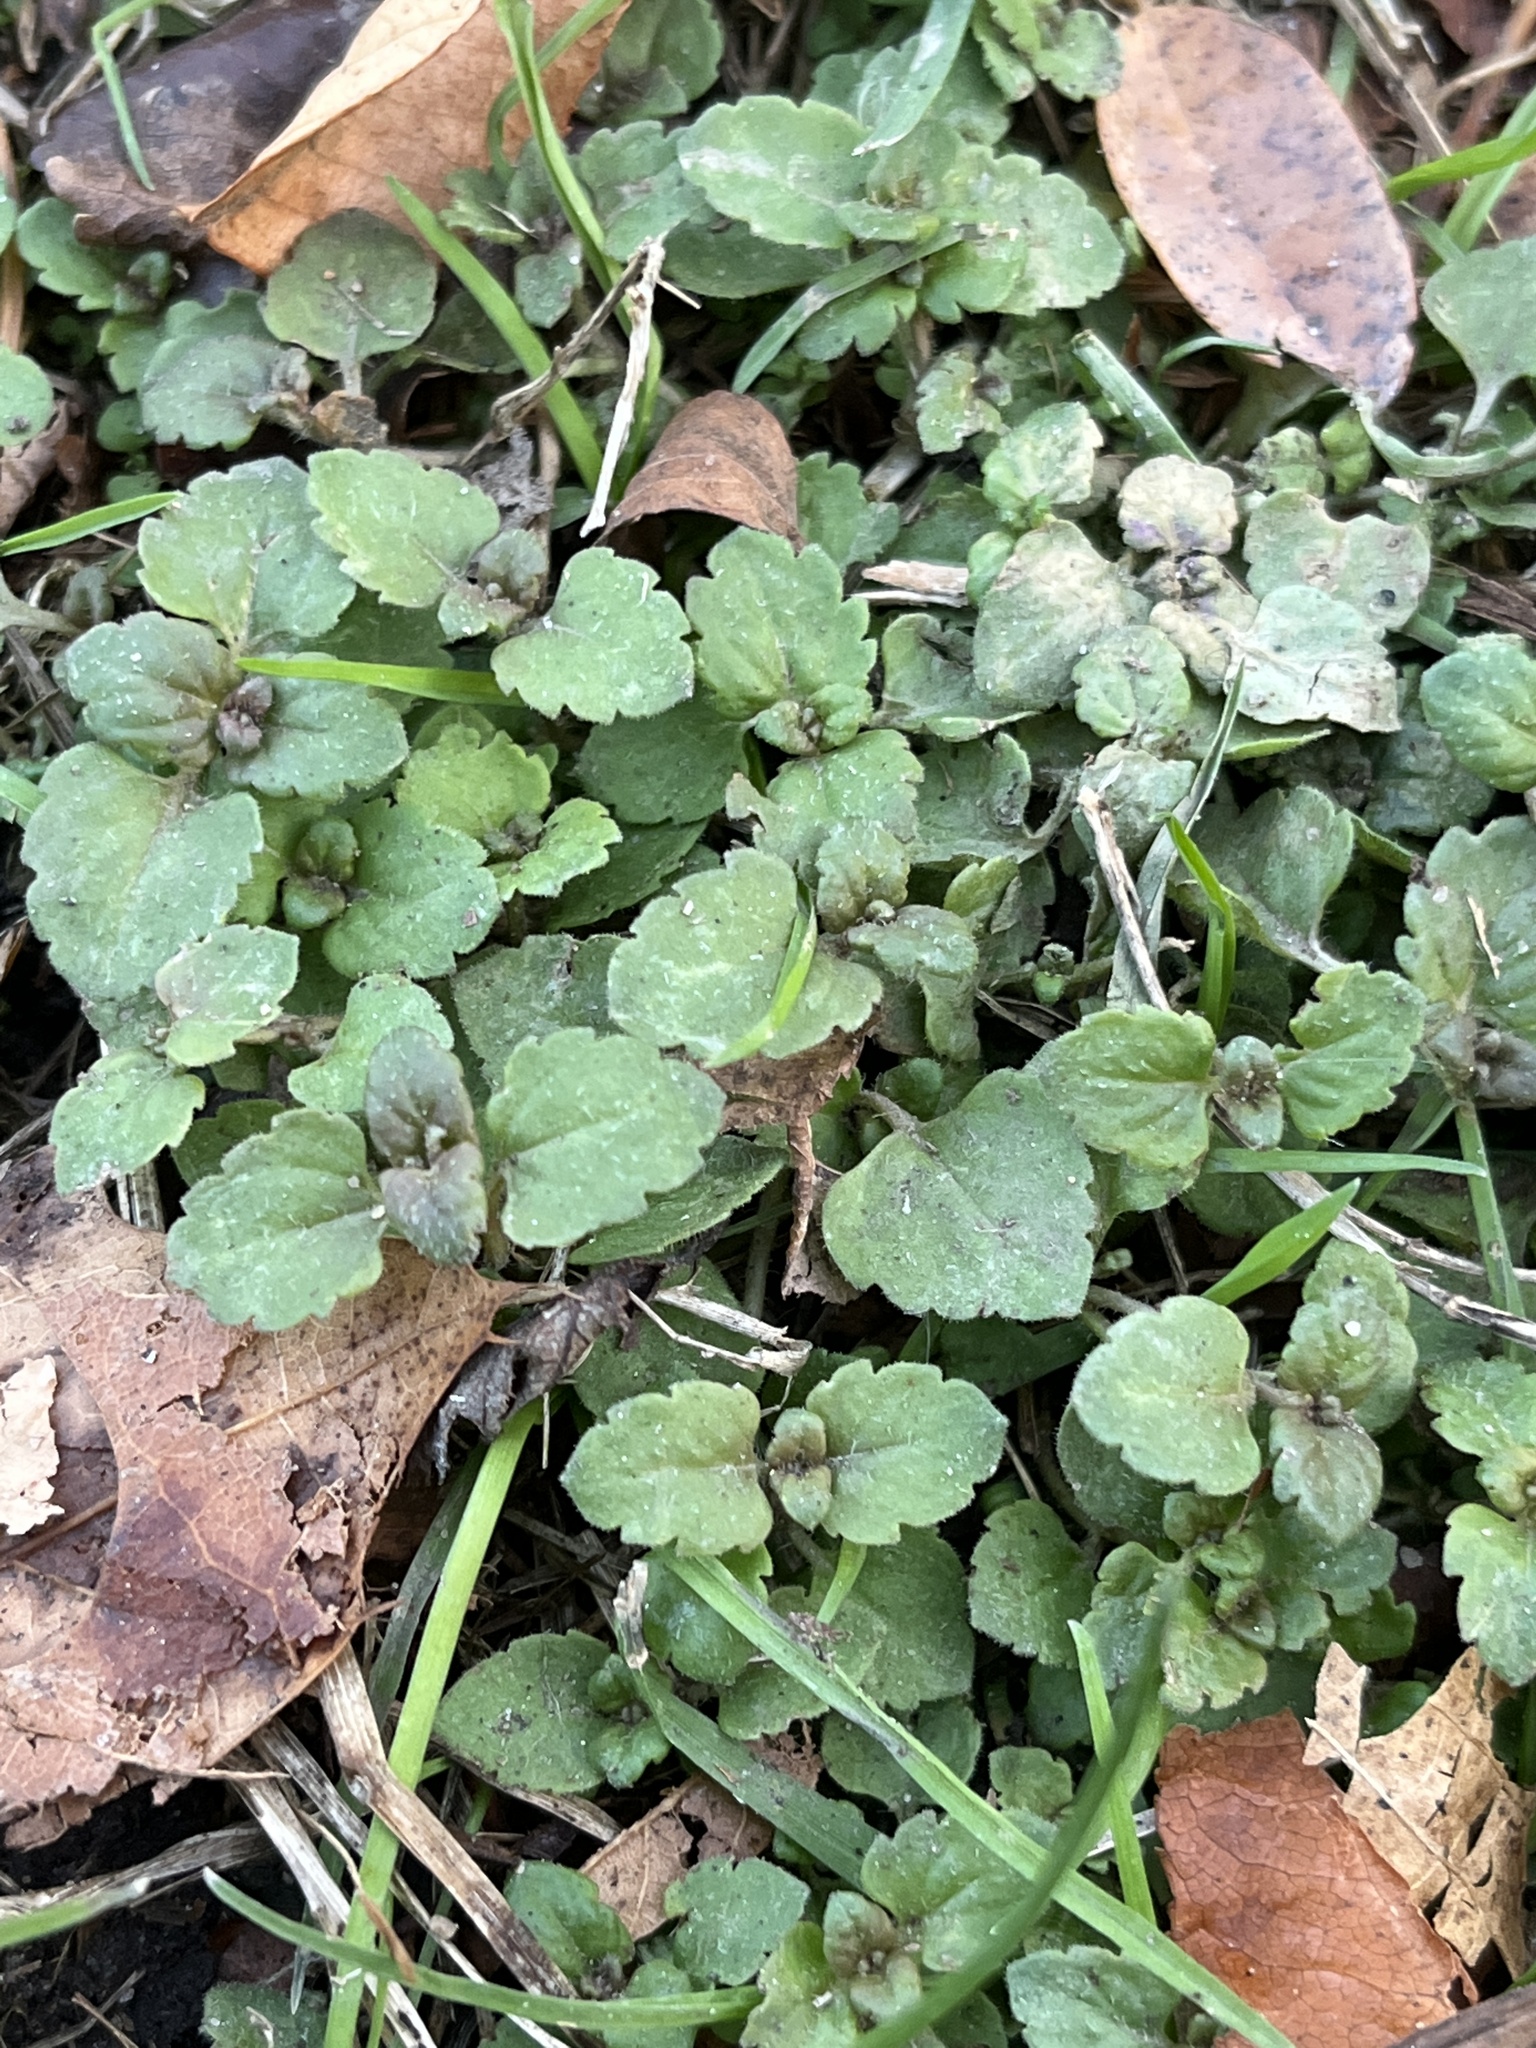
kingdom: Plantae
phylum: Tracheophyta
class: Magnoliopsida
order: Lamiales
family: Plantaginaceae
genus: Veronica
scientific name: Veronica persica
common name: Common field-speedwell
